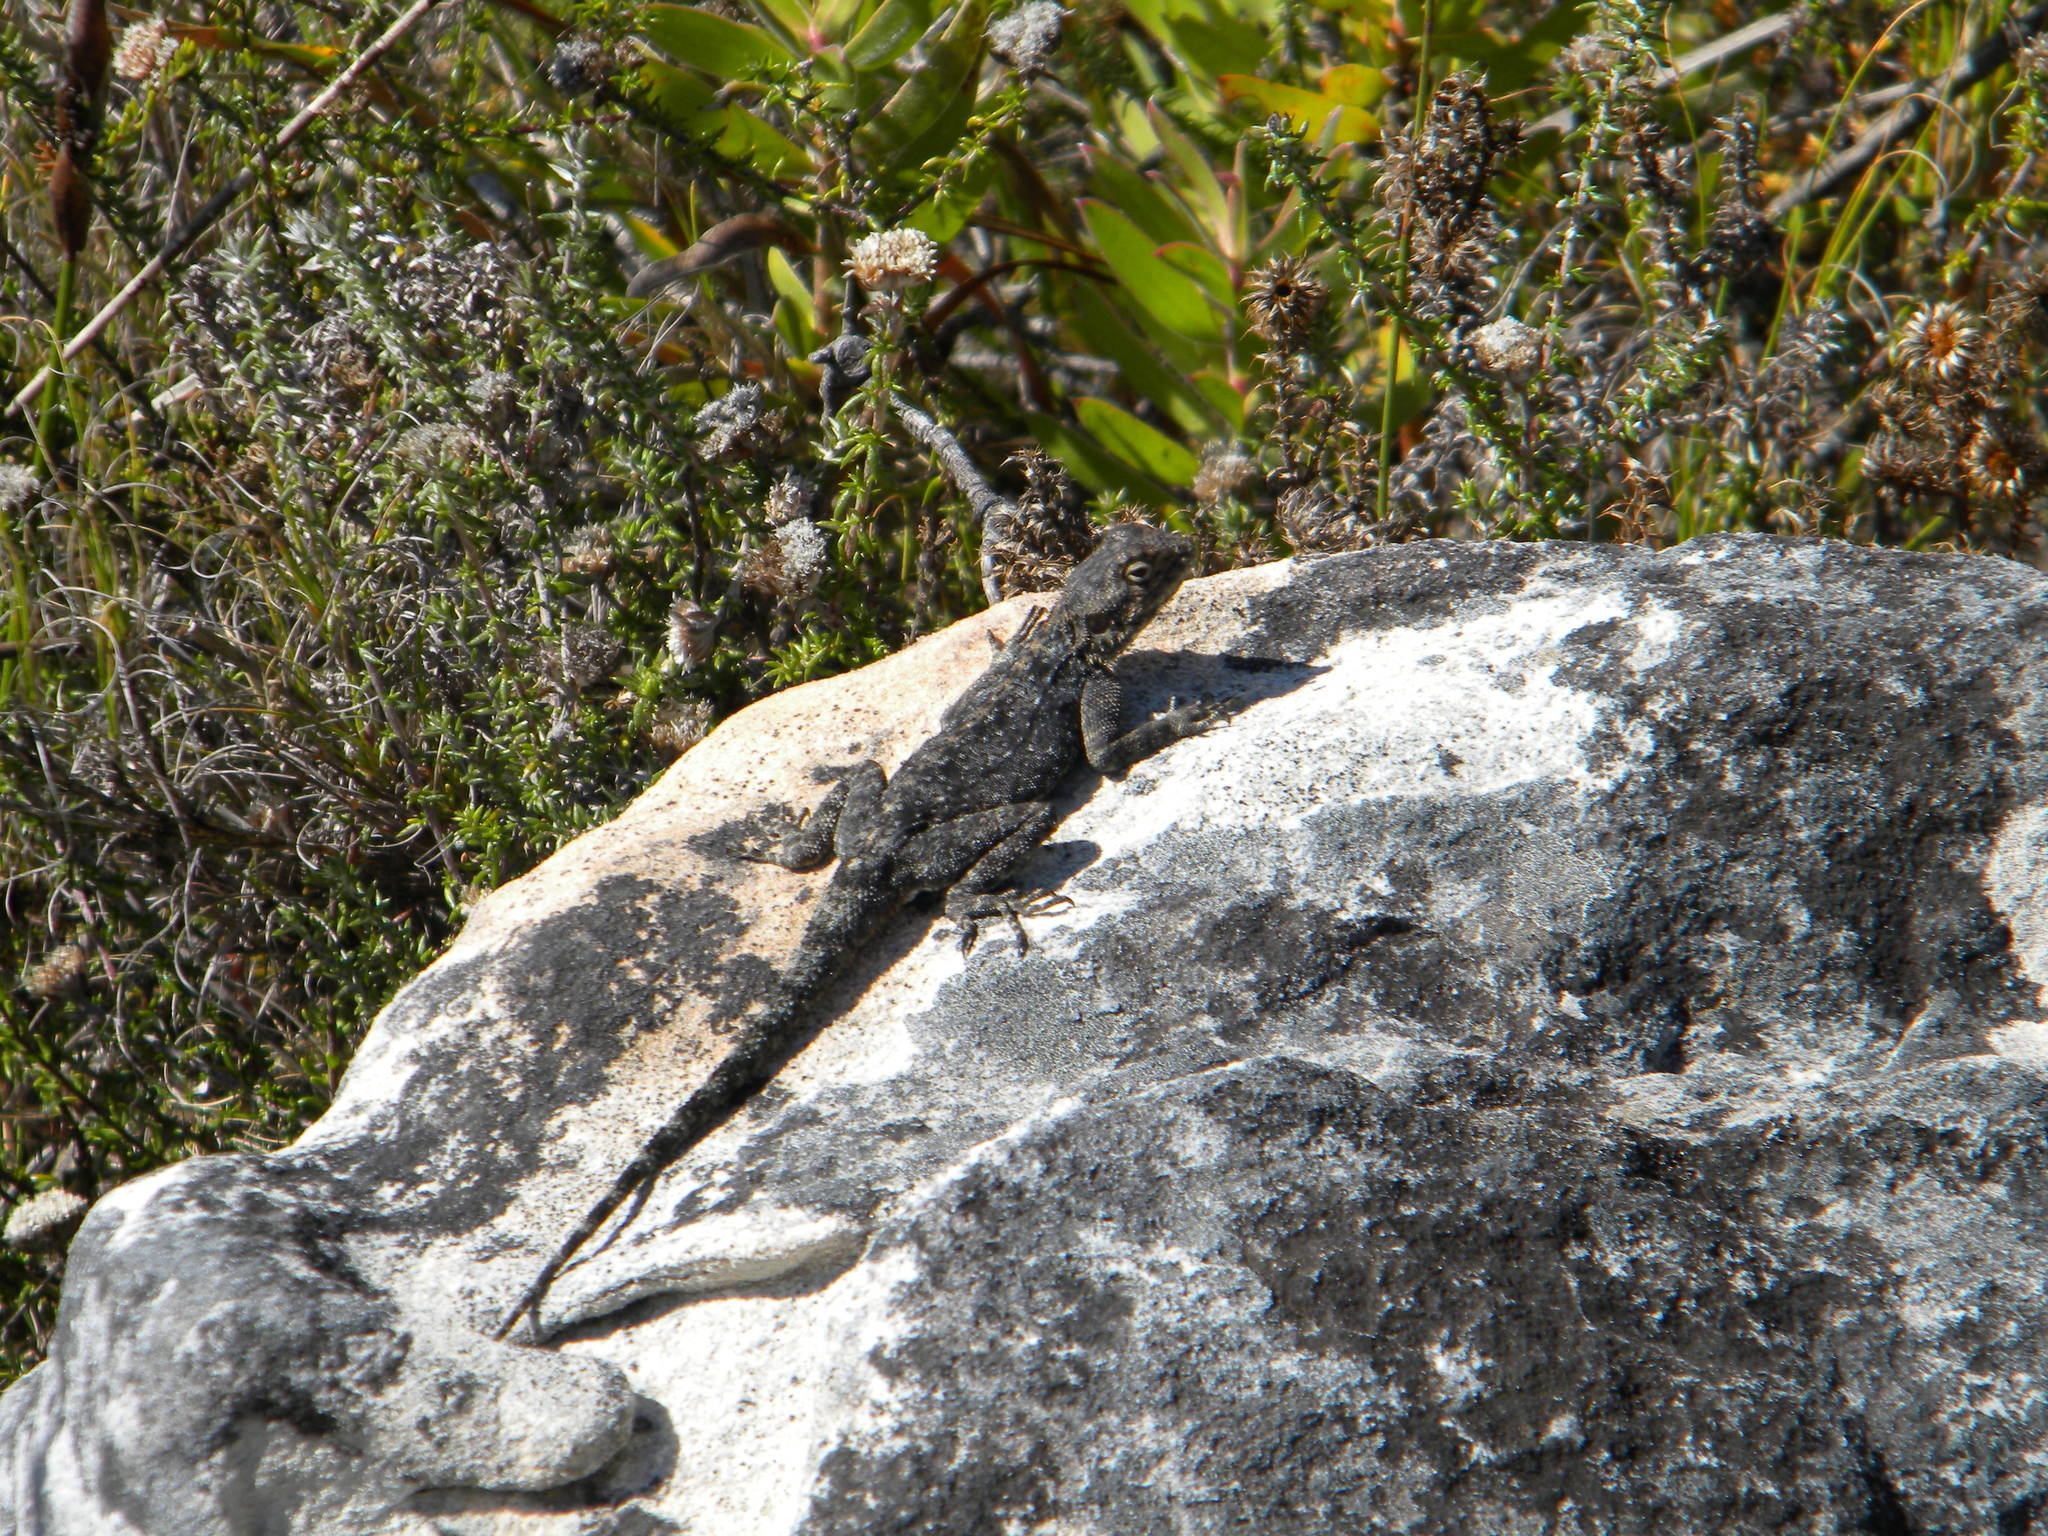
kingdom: Animalia
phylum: Chordata
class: Squamata
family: Agamidae
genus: Agama
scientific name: Agama atra
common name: Southern african rock agama
